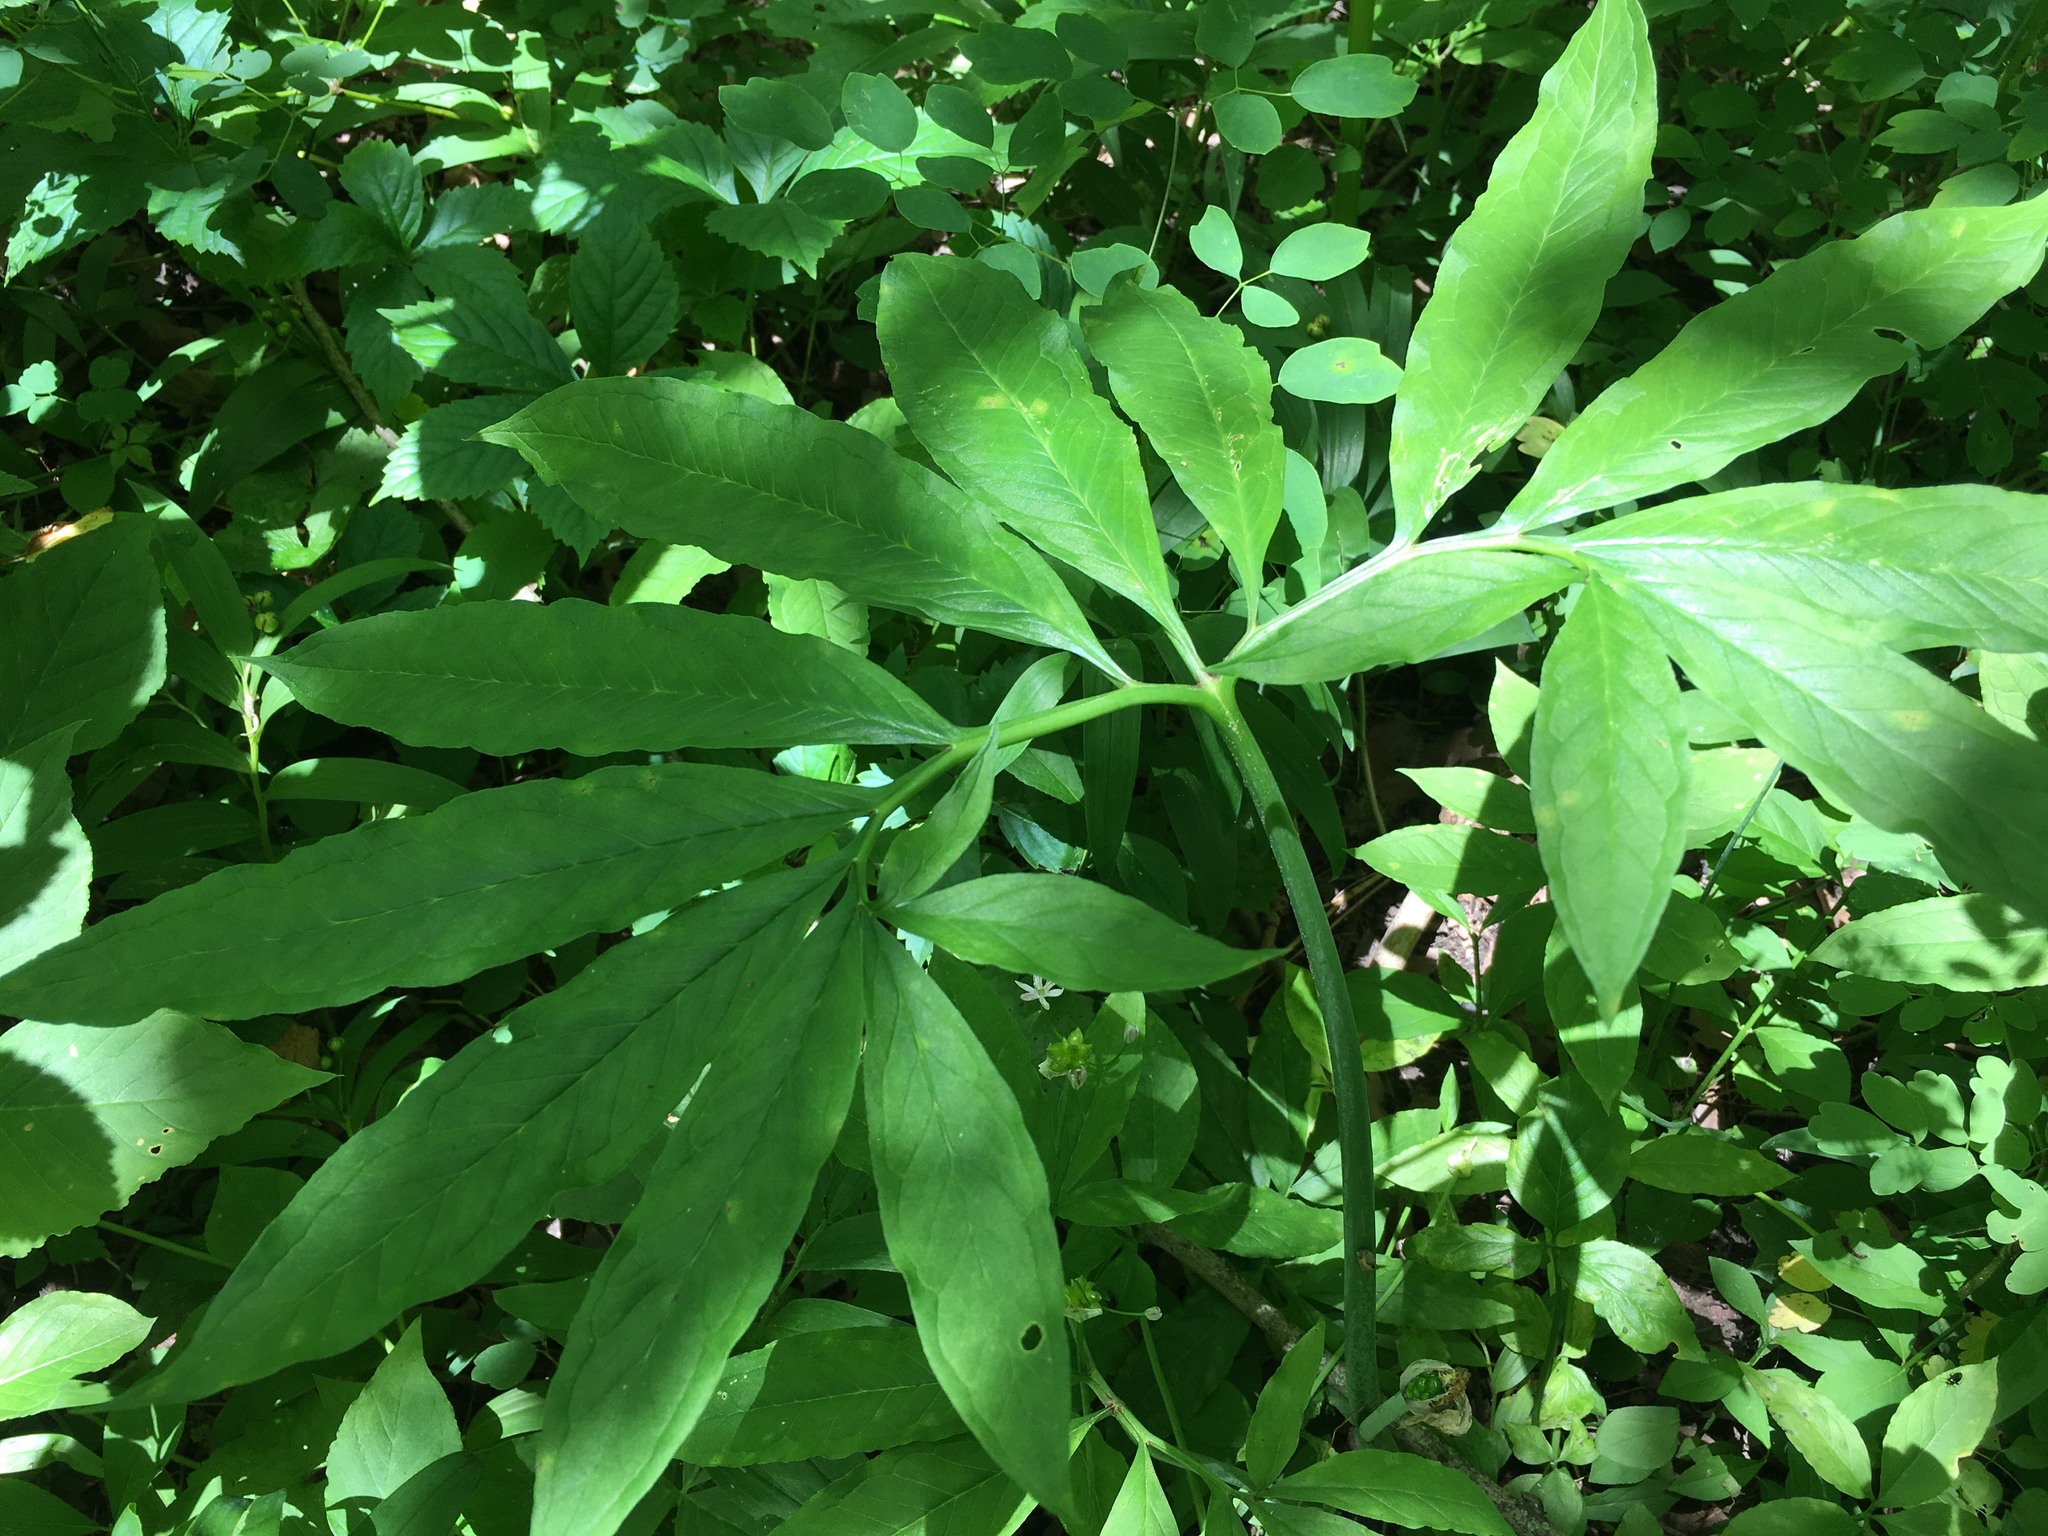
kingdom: Plantae
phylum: Tracheophyta
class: Liliopsida
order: Alismatales
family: Araceae
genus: Arisaema
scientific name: Arisaema dracontium
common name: Dragon-arum
